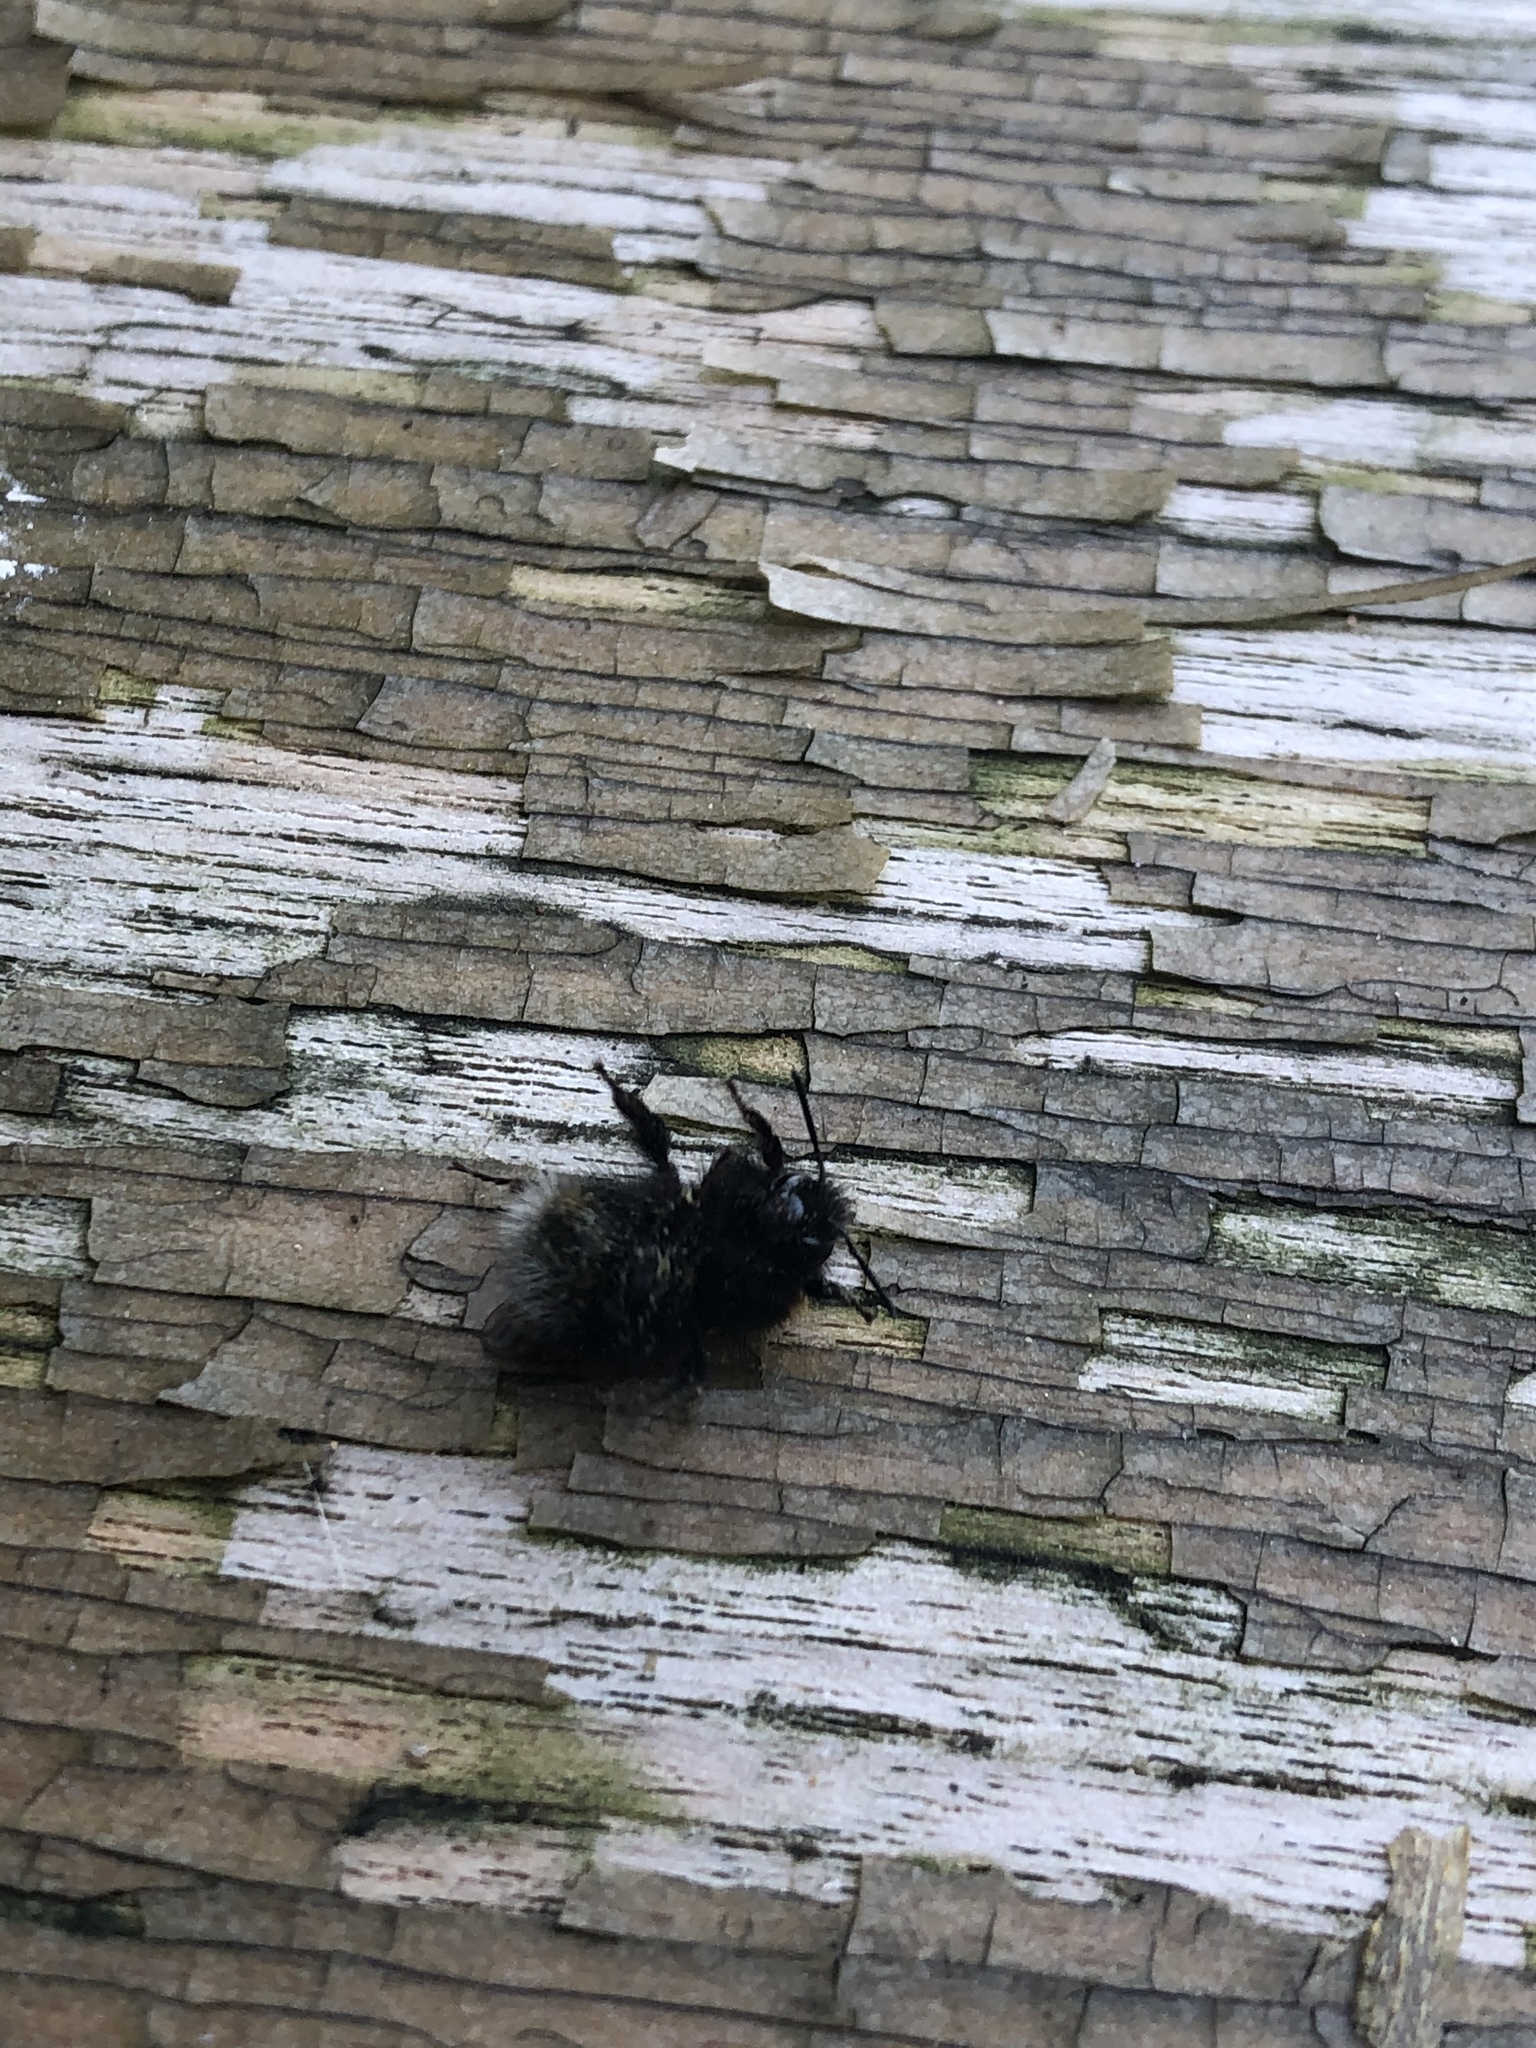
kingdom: Animalia
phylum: Arthropoda
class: Insecta
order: Hymenoptera
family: Apidae
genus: Bombus
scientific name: Bombus hypnorum
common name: New garden bumblebee
